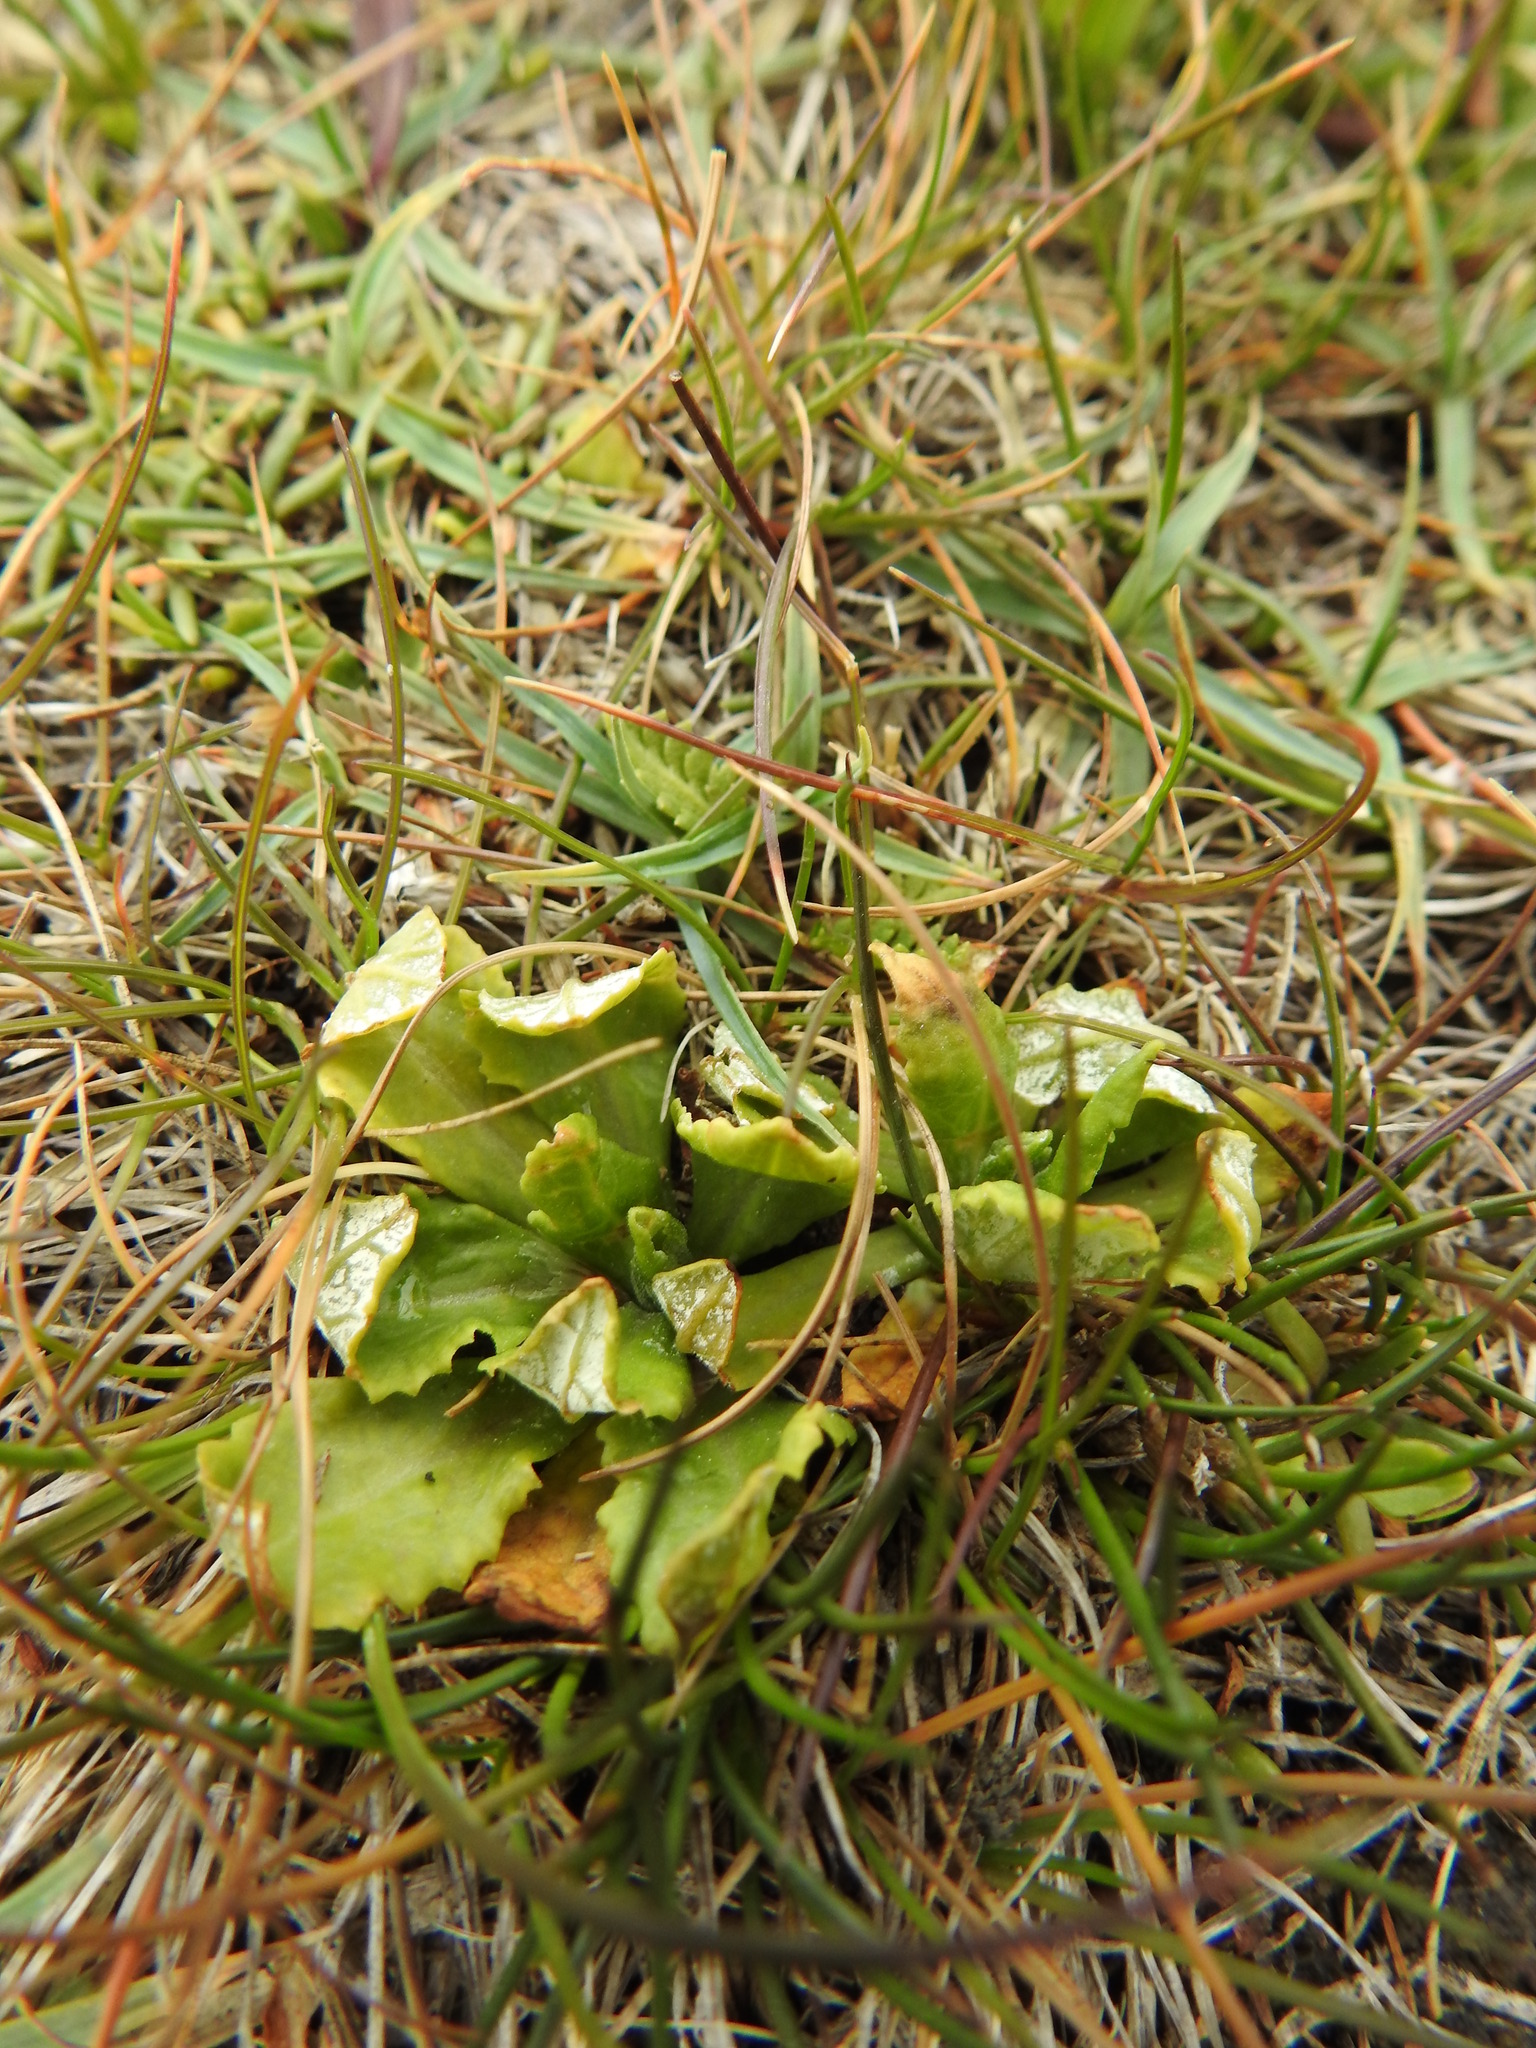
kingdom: Plantae
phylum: Tracheophyta
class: Magnoliopsida
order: Ericales
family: Primulaceae
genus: Primula
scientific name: Primula magellanica
